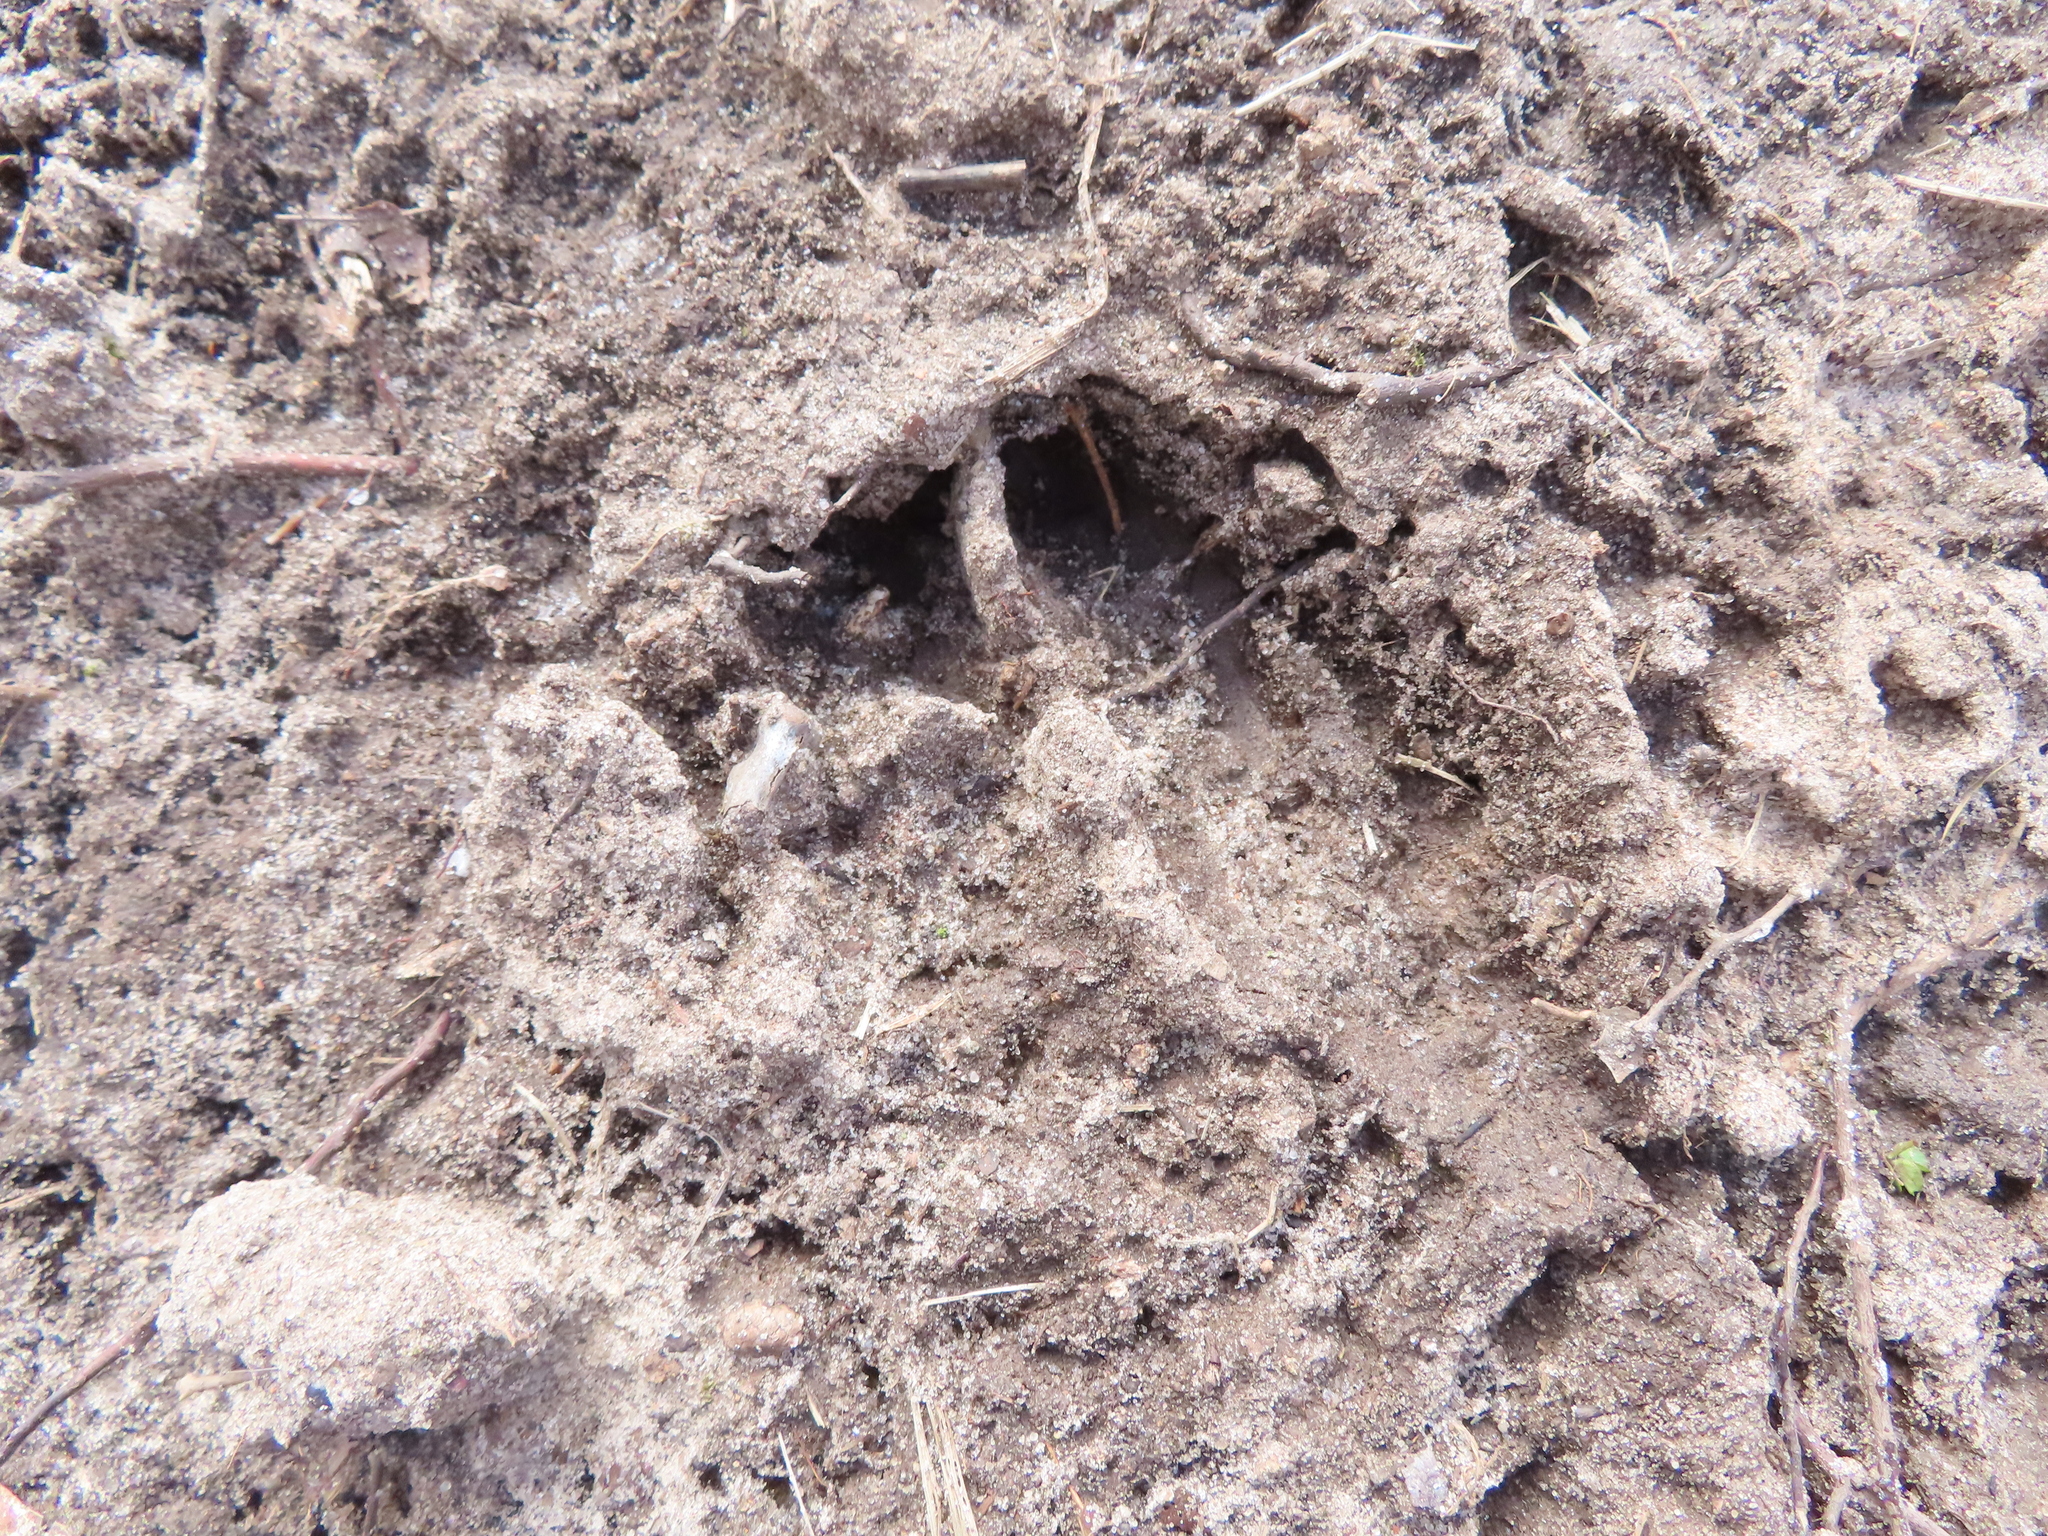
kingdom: Animalia
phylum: Chordata
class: Mammalia
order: Artiodactyla
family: Cervidae
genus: Odocoileus
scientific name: Odocoileus virginianus
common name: White-tailed deer
